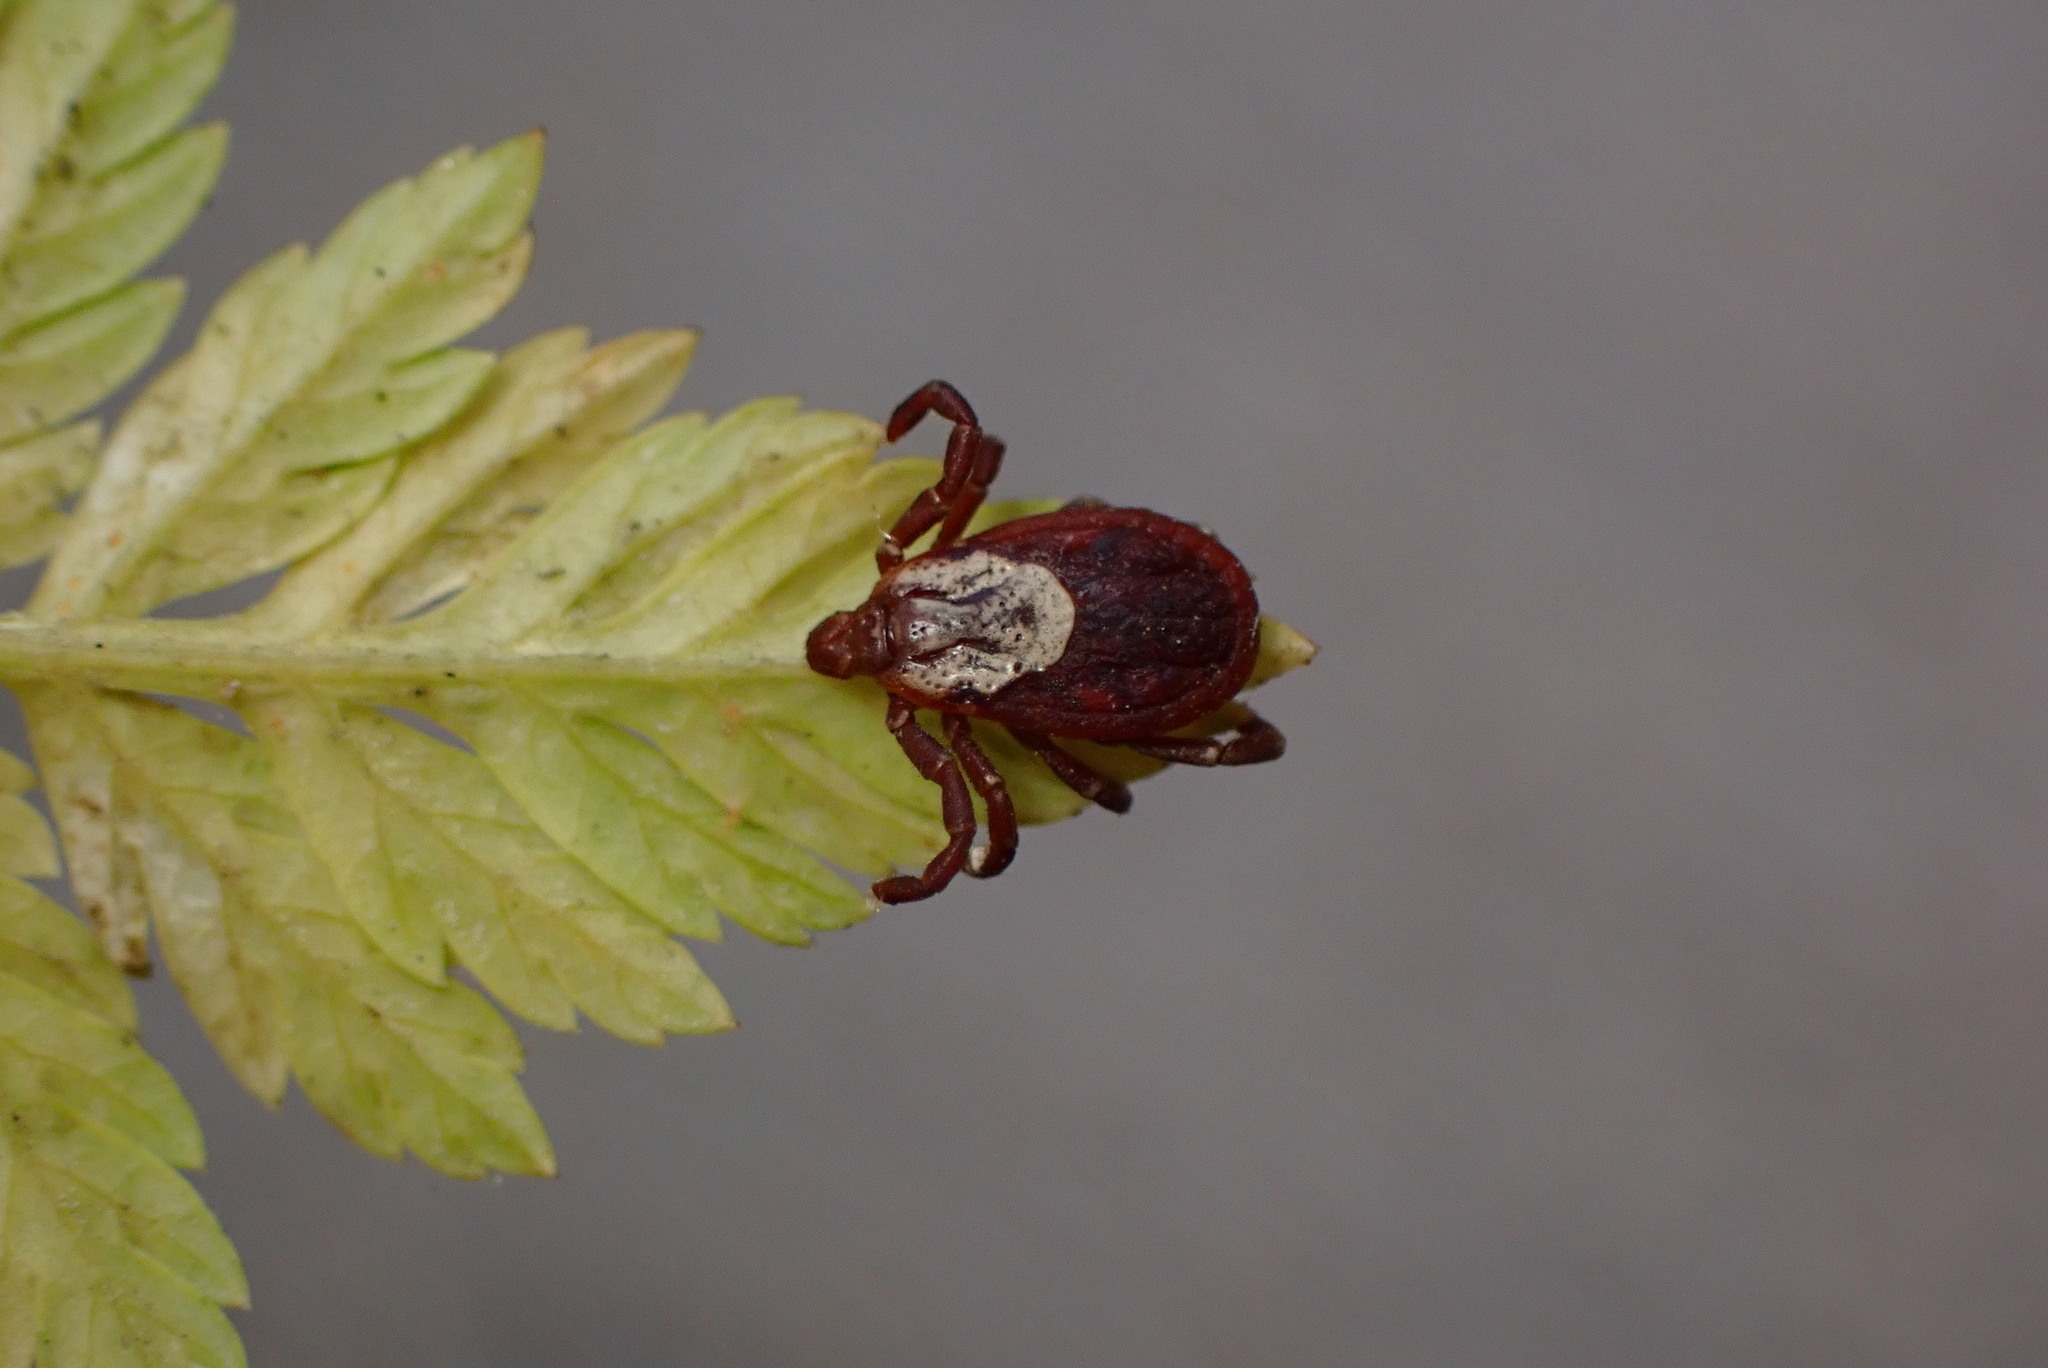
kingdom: Animalia
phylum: Arthropoda
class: Arachnida
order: Ixodida
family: Ixodidae
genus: Dermacentor
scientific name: Dermacentor variabilis
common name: American dog tick
